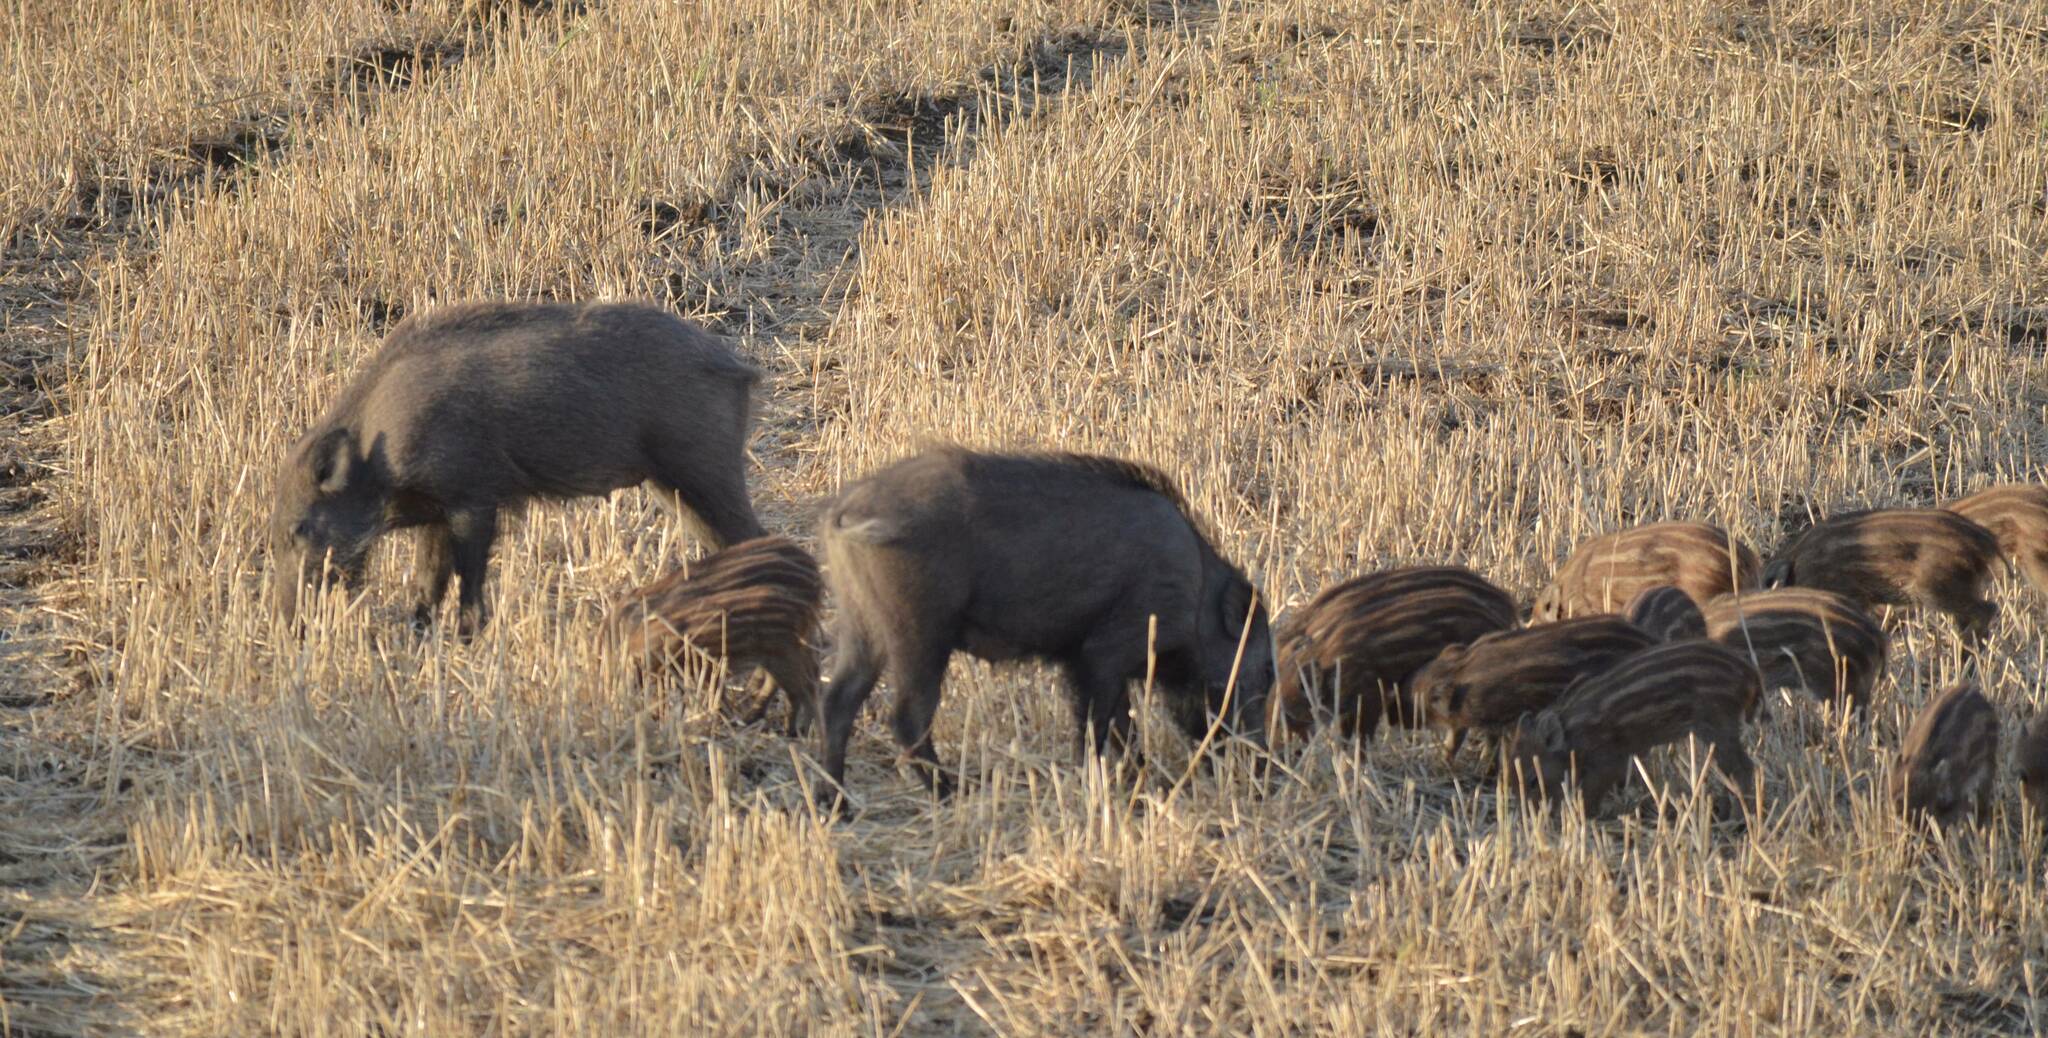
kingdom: Animalia
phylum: Chordata
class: Mammalia
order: Artiodactyla
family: Suidae
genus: Sus
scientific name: Sus scrofa
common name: Wild boar
